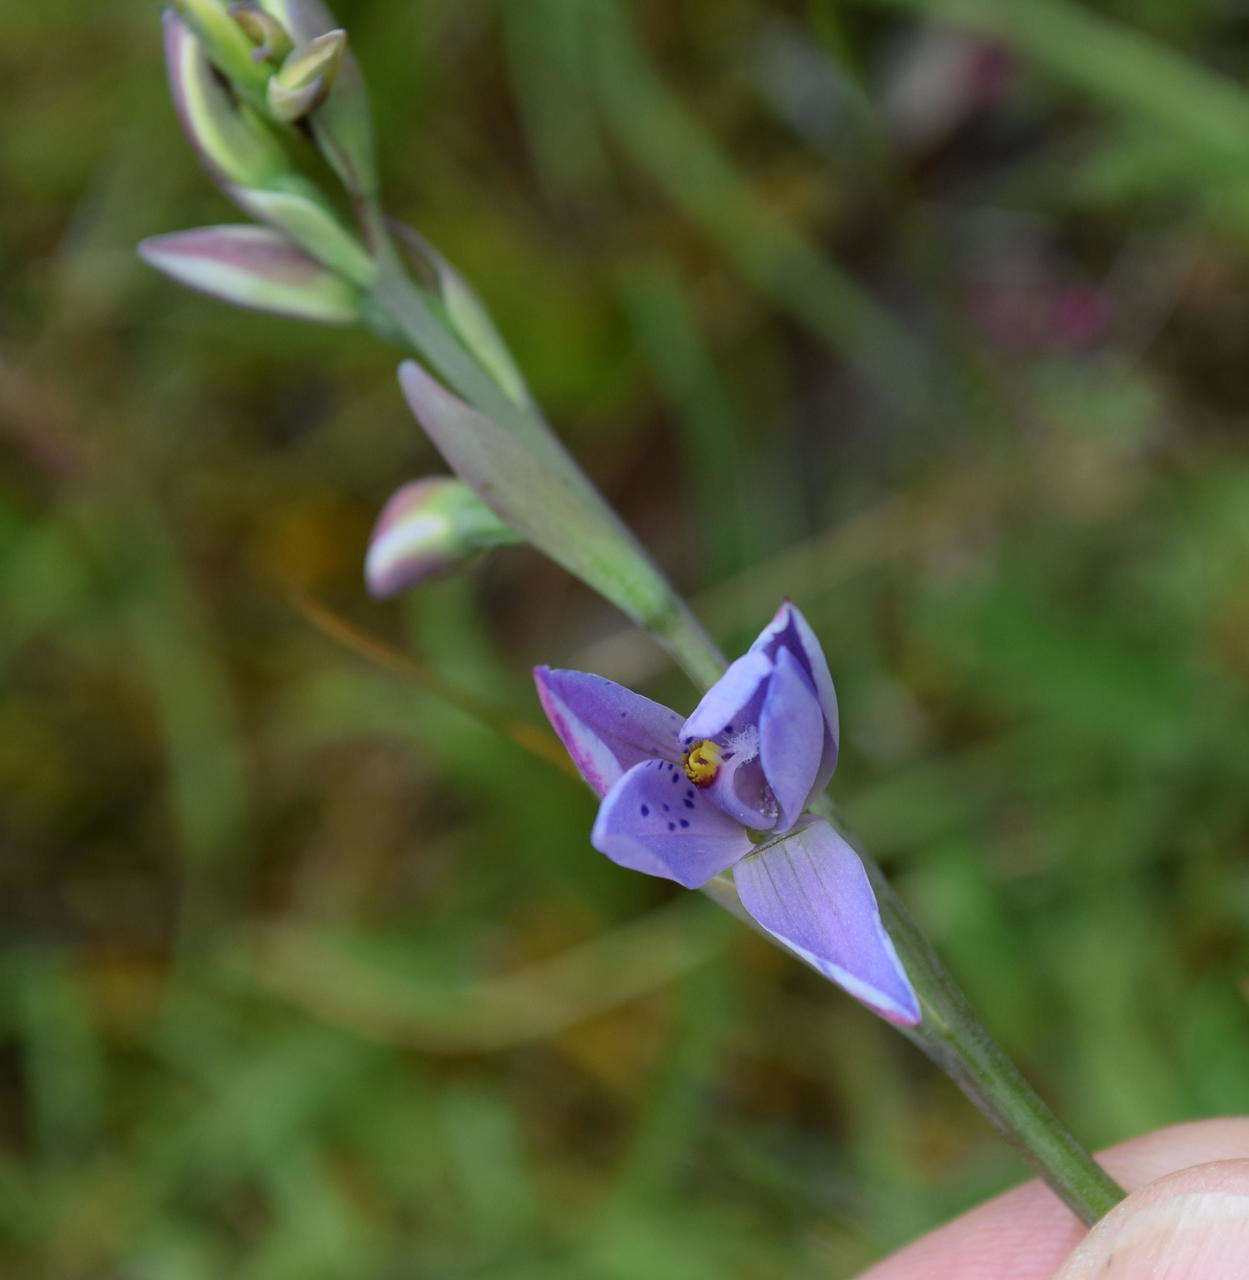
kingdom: Plantae
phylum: Tracheophyta
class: Liliopsida
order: Asparagales
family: Orchidaceae
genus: Thelymitra
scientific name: Thelymitra ixioides
